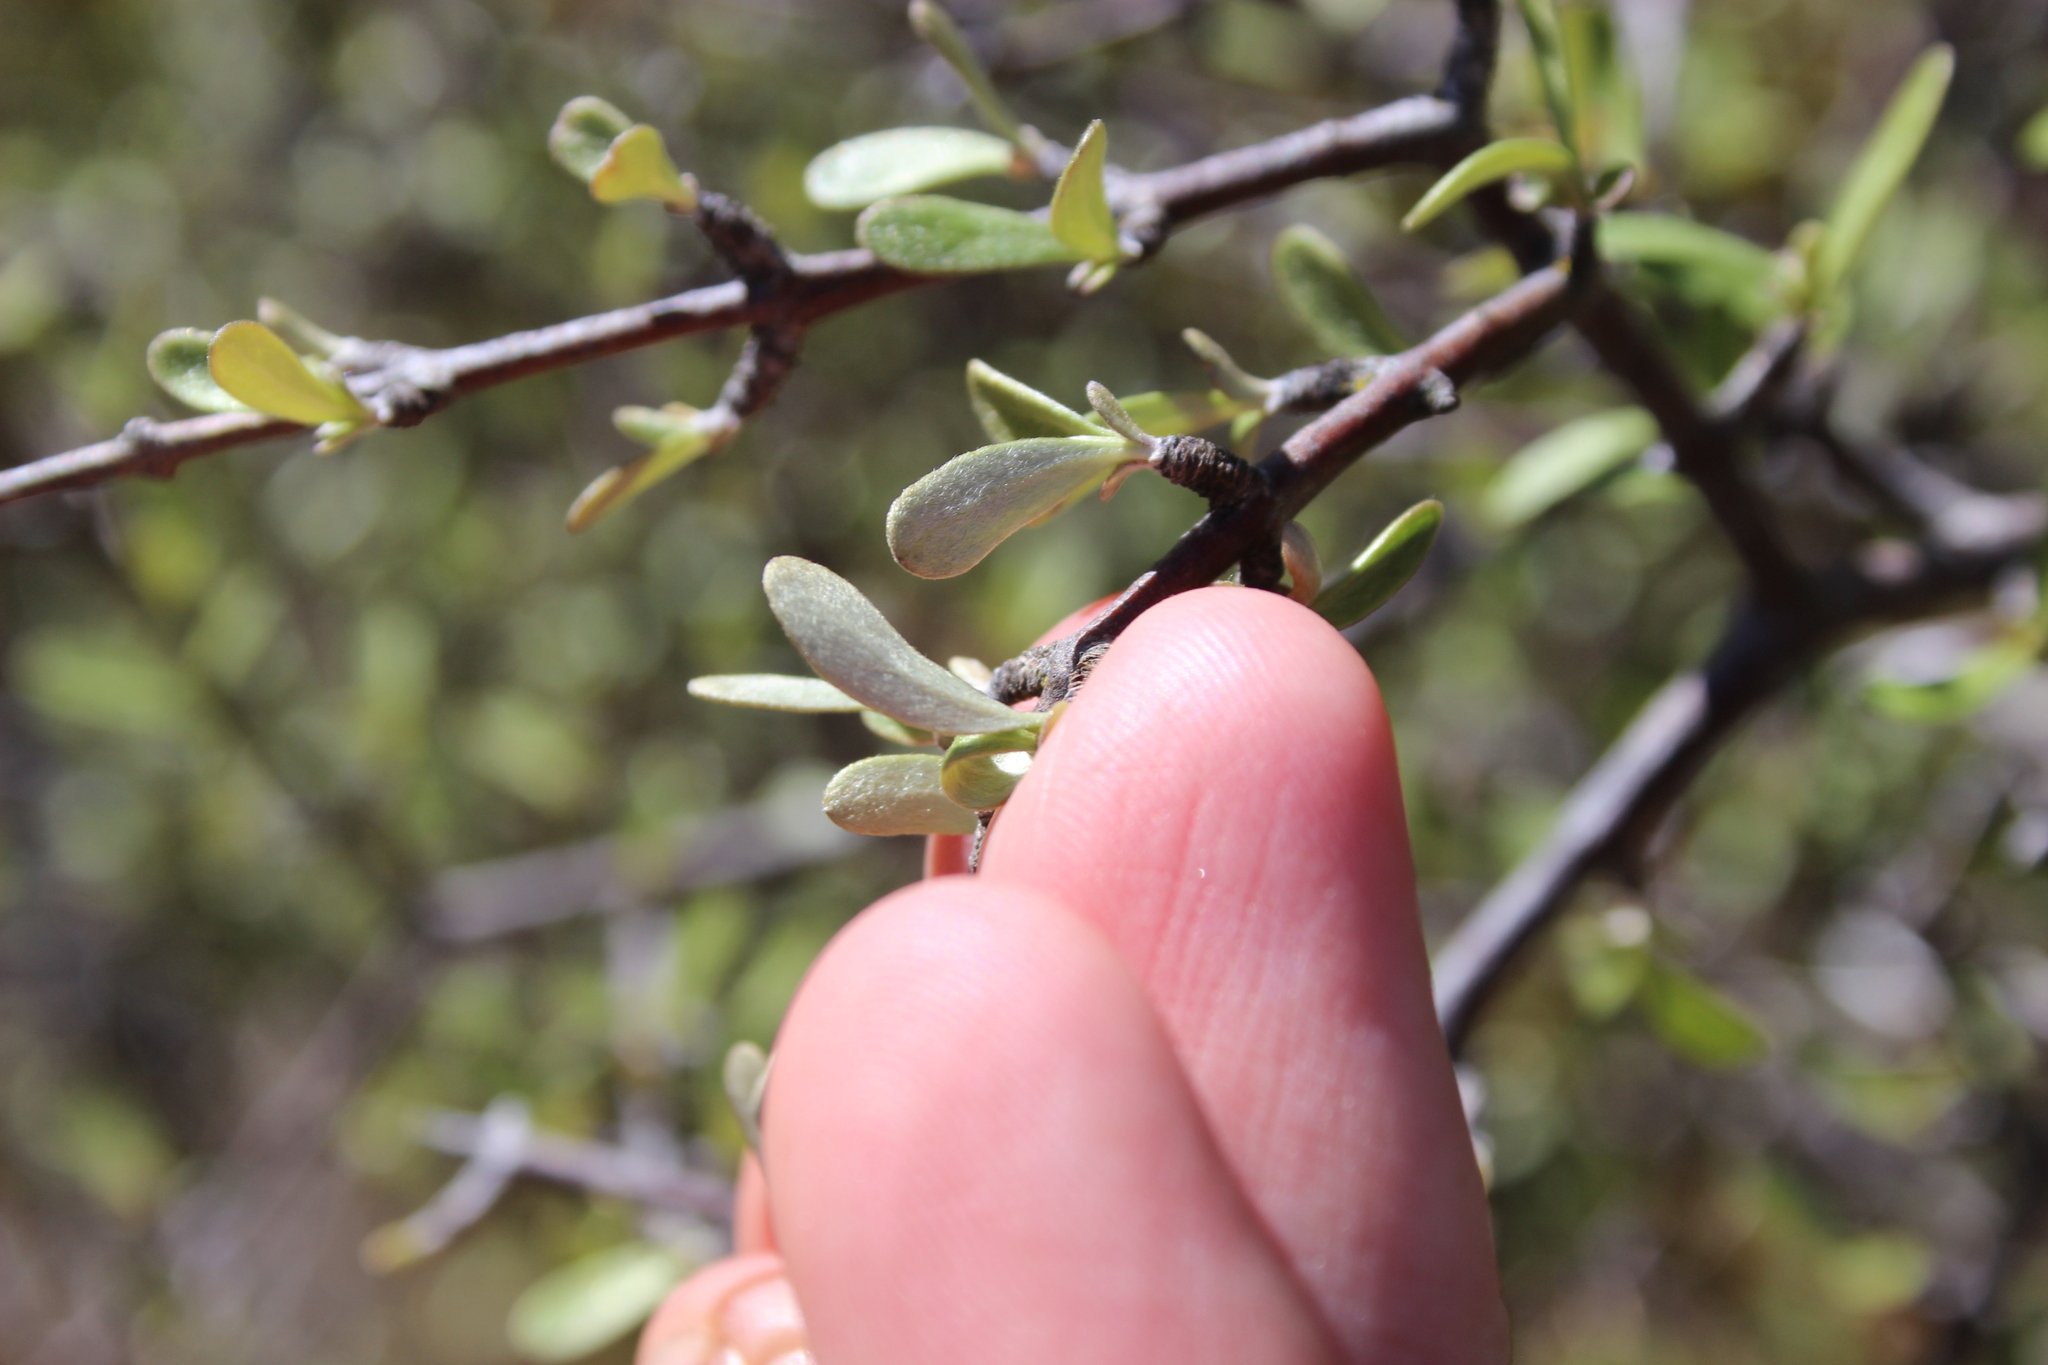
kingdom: Plantae
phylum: Tracheophyta
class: Magnoliopsida
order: Asterales
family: Asteraceae
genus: Olearia
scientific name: Olearia odorata
